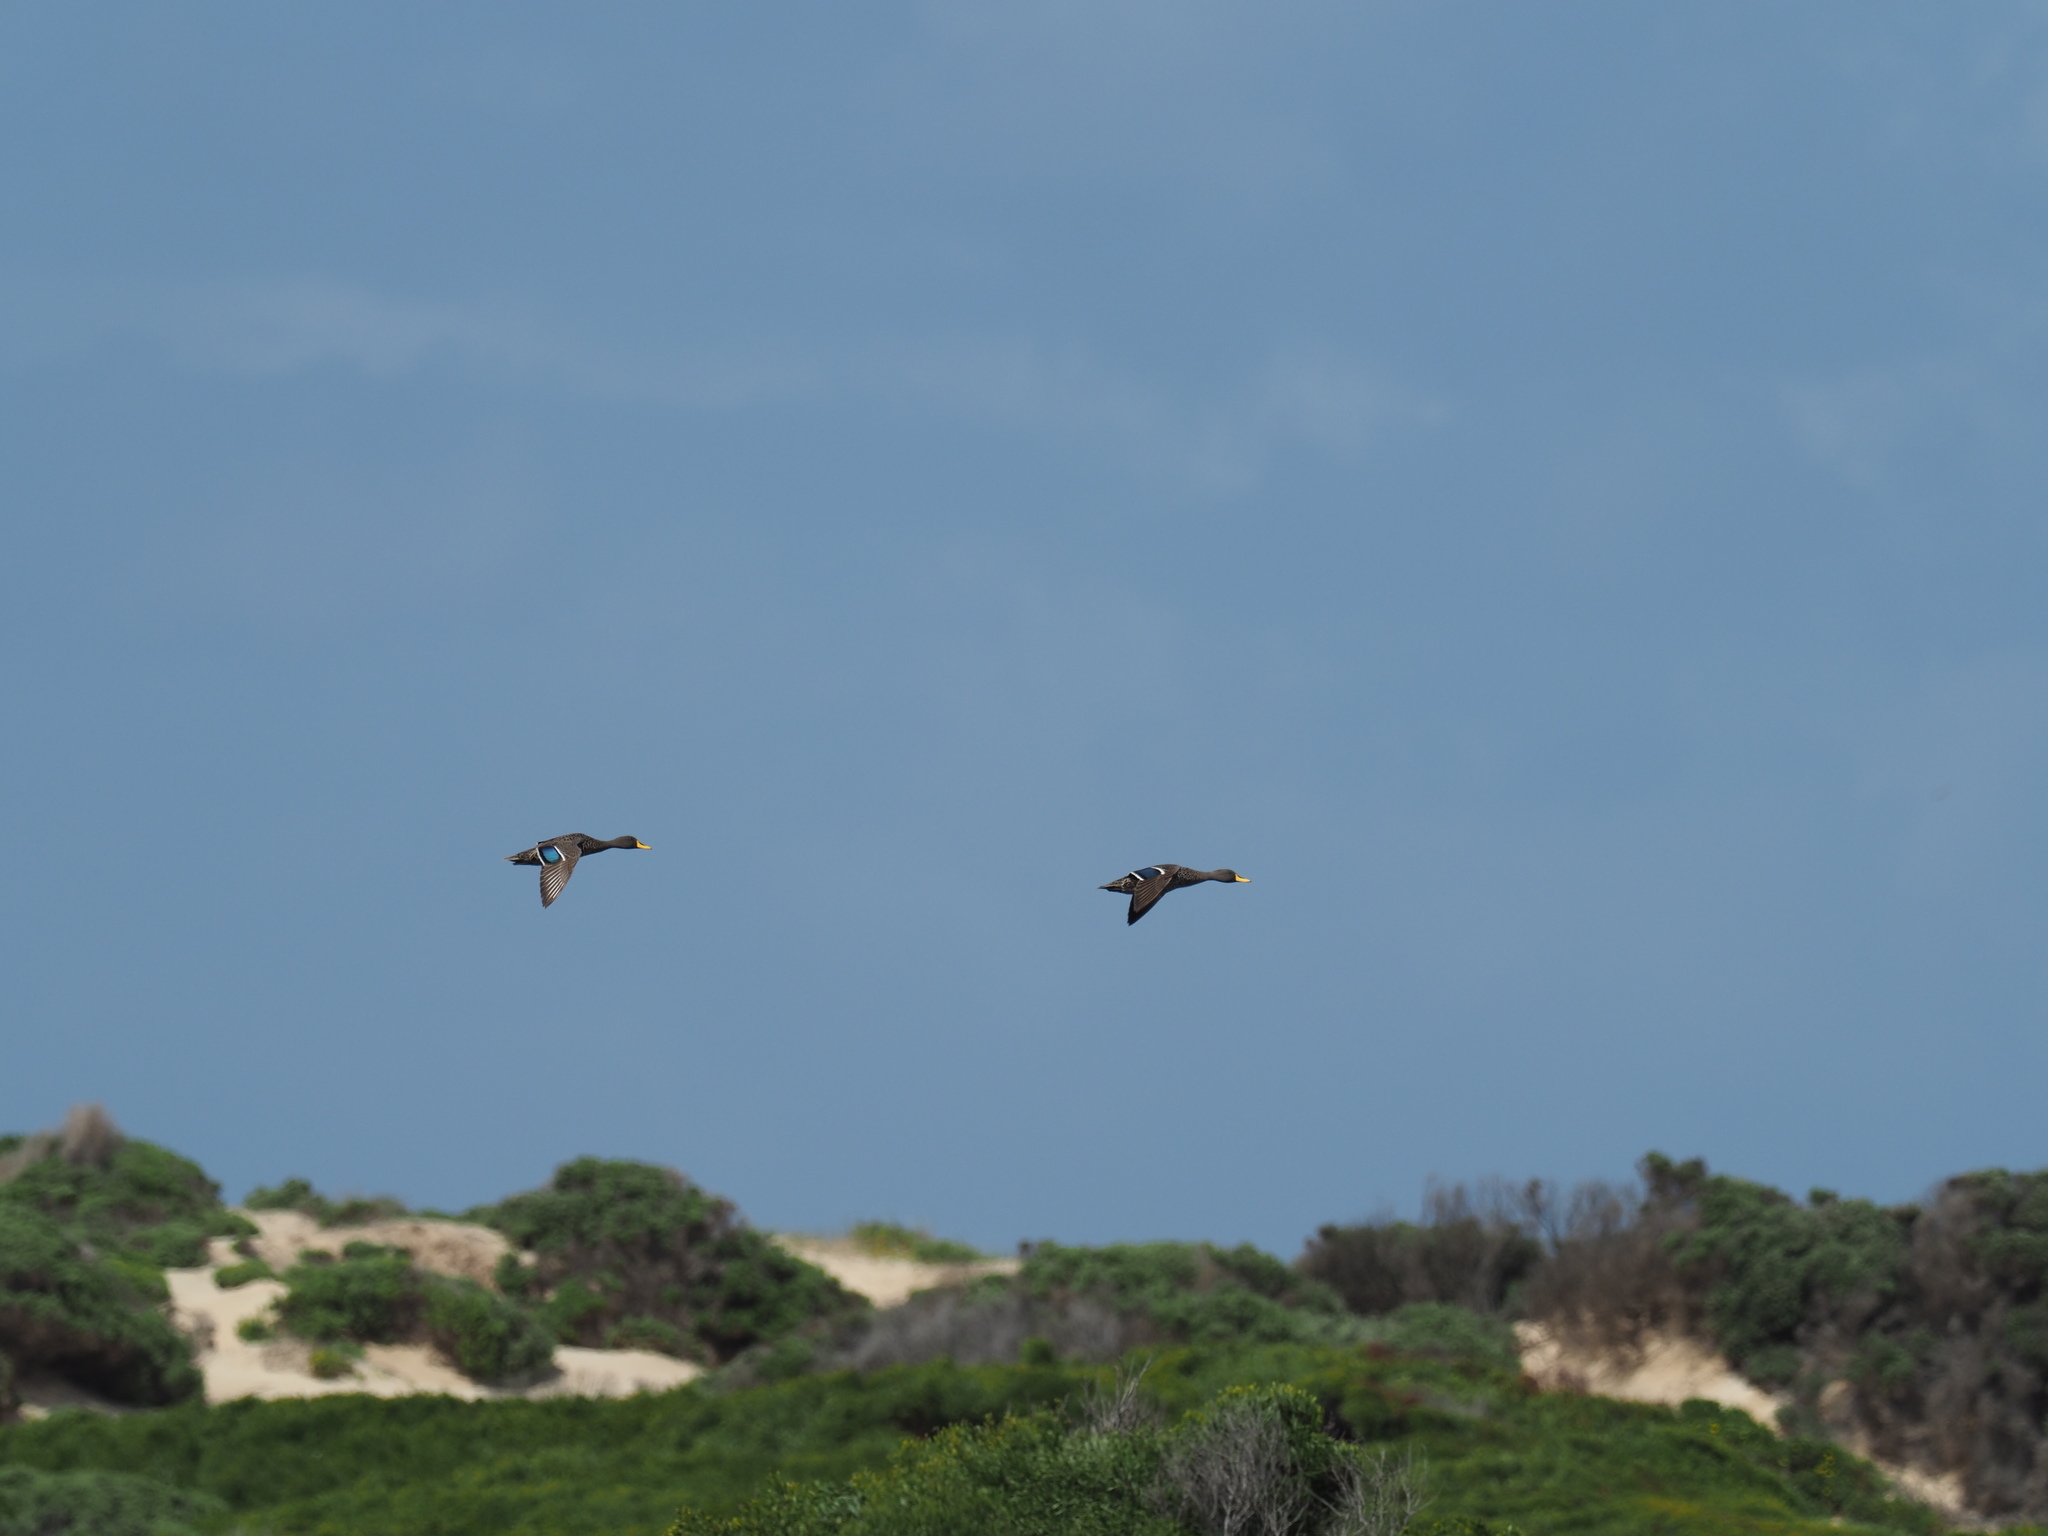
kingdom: Animalia
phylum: Chordata
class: Aves
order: Anseriformes
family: Anatidae
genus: Anas
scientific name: Anas undulata
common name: Yellow-billed duck
